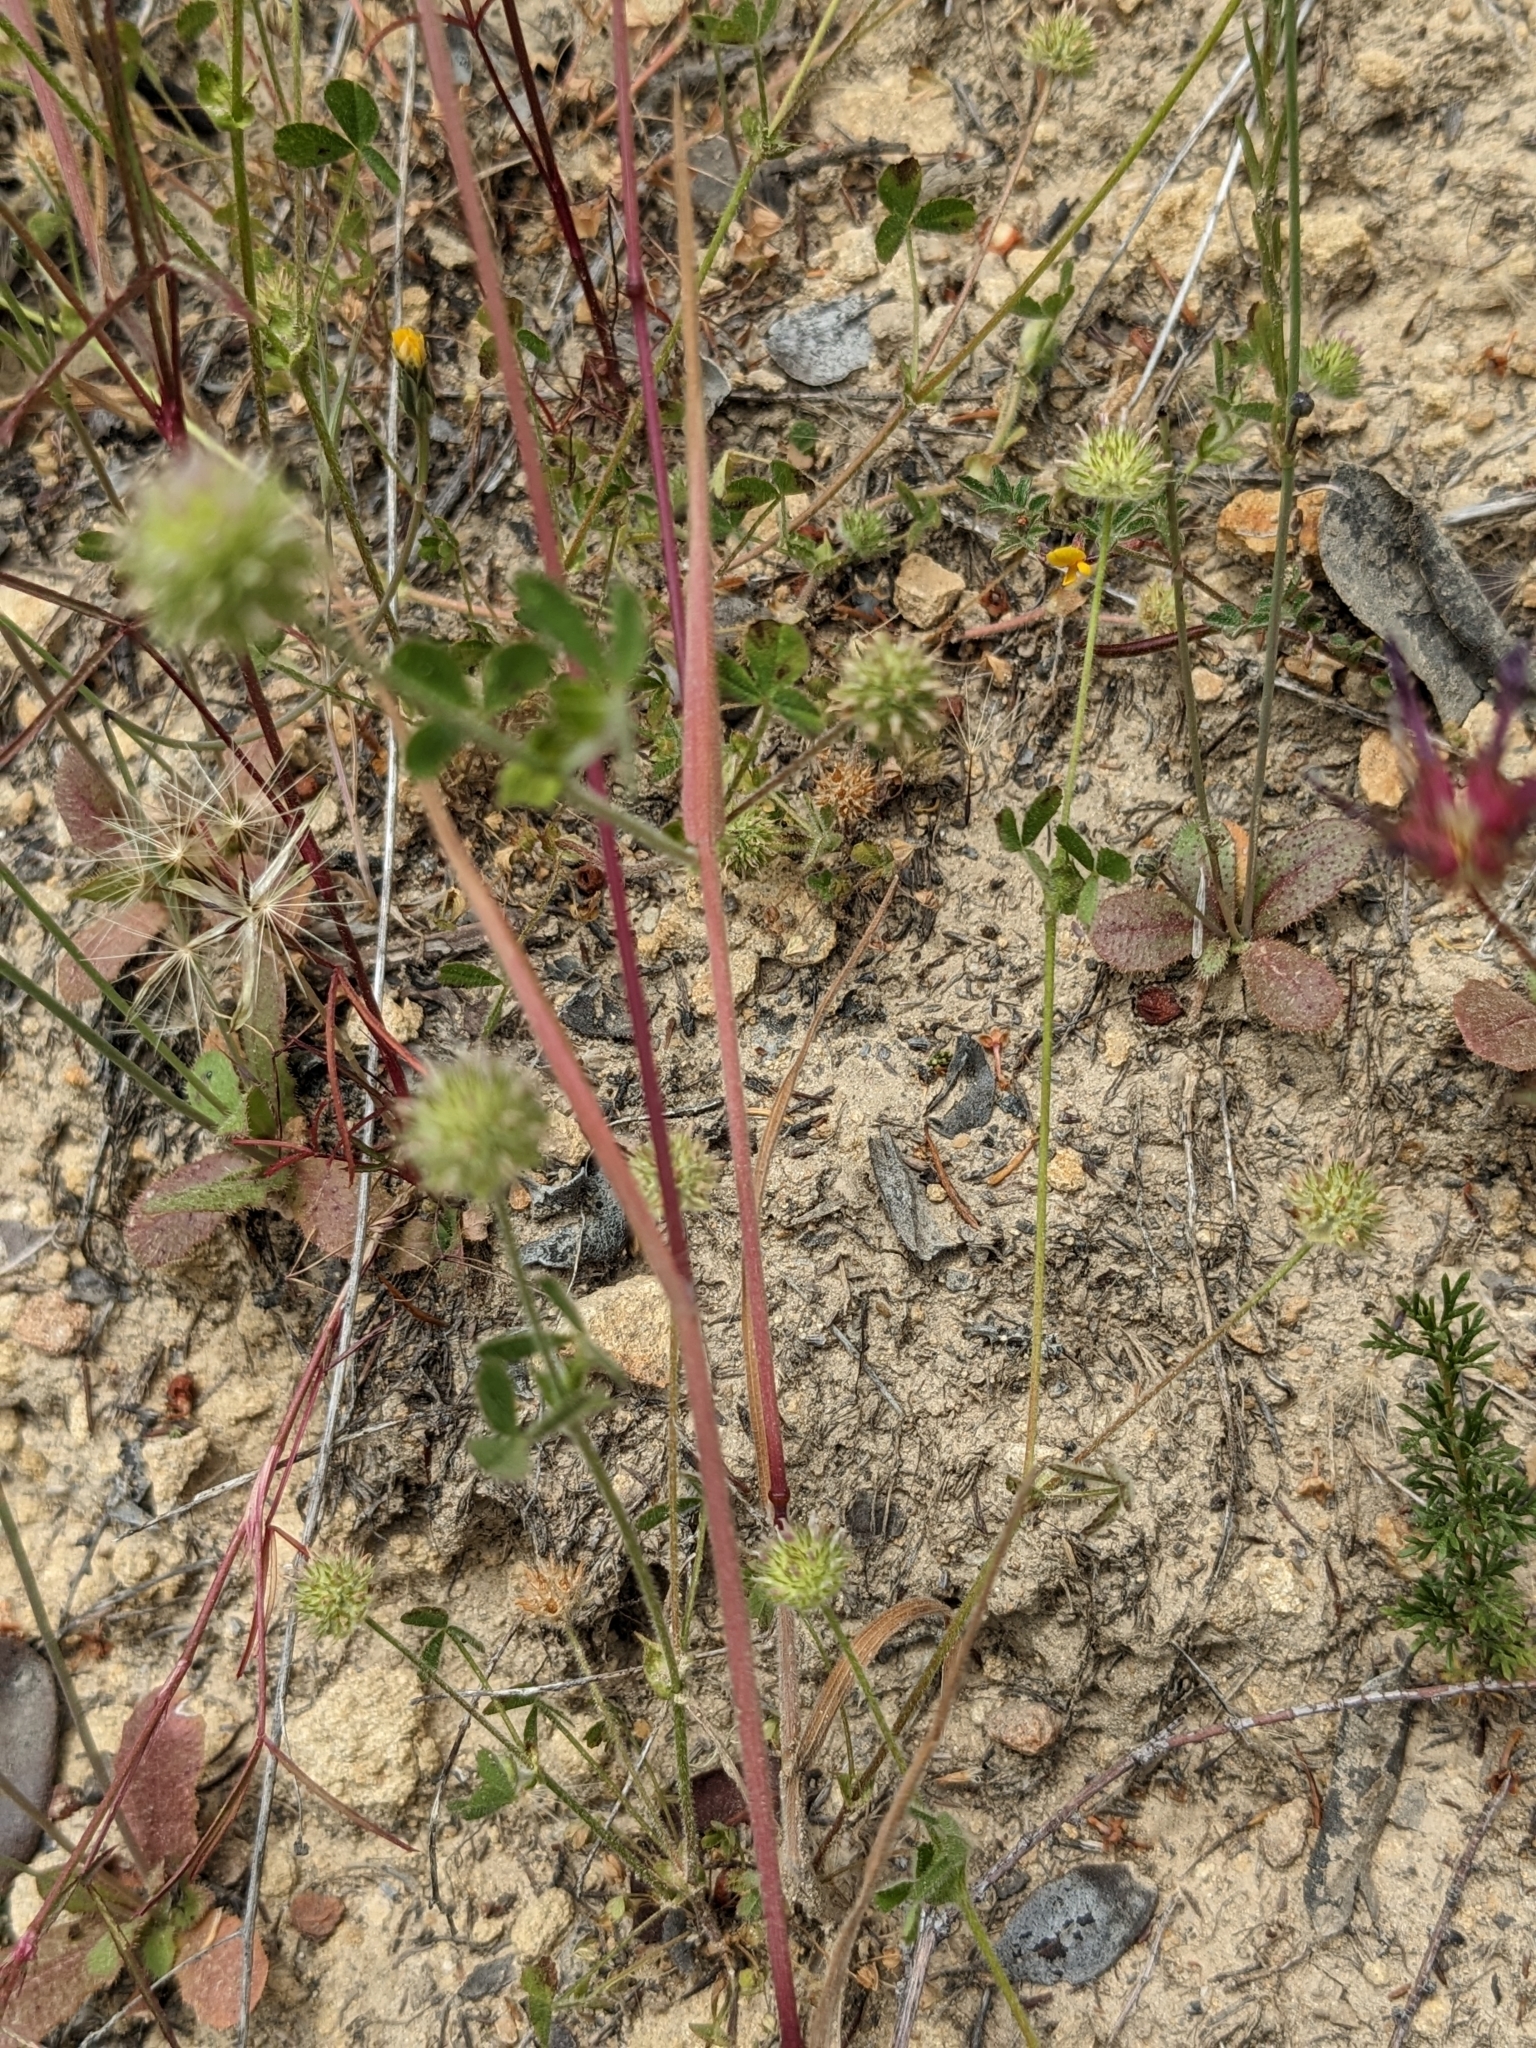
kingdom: Plantae
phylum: Tracheophyta
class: Magnoliopsida
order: Fabales
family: Fabaceae
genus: Trifolium
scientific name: Trifolium microcephalum
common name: Maiden clover
